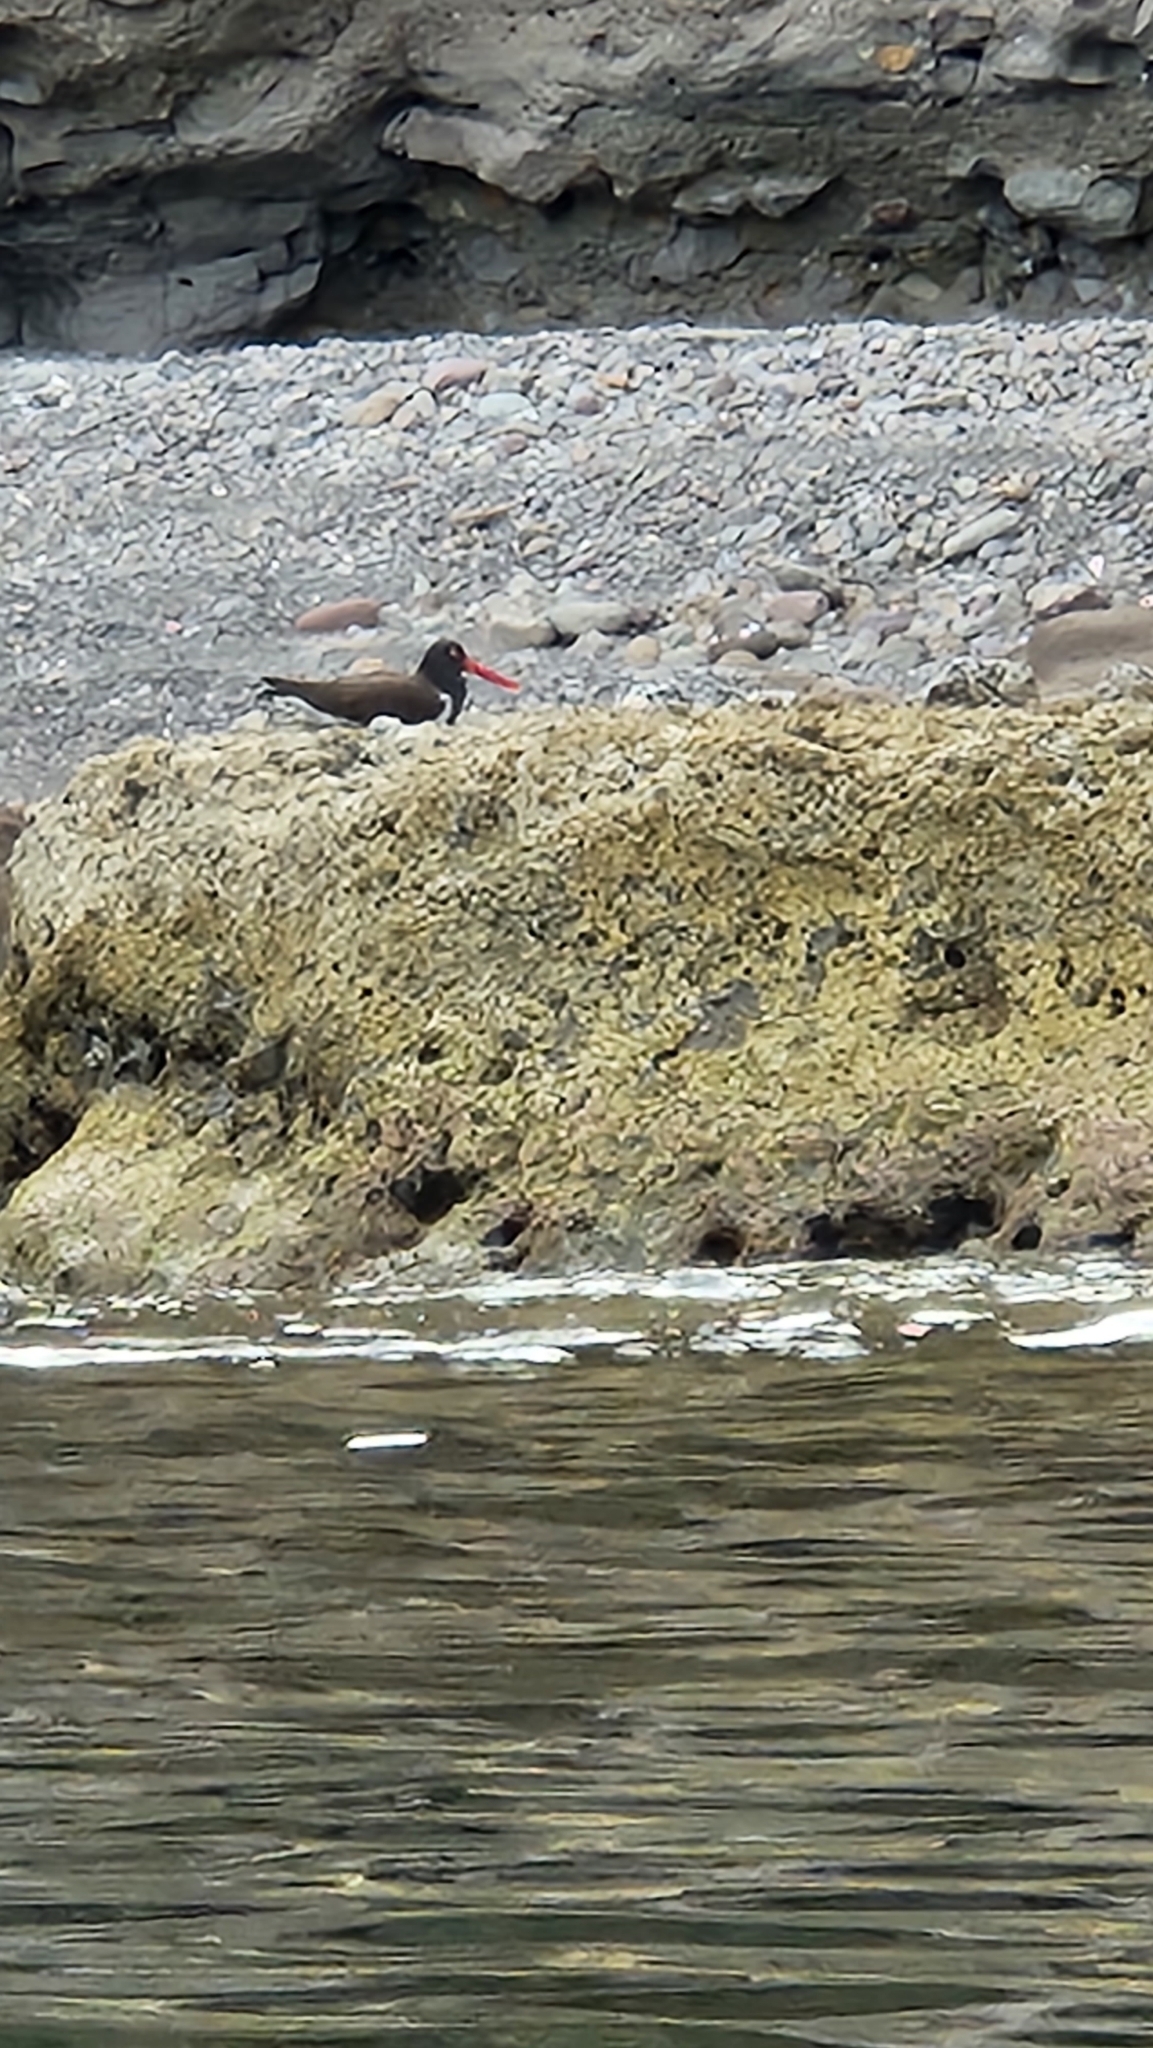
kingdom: Animalia
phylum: Chordata
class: Aves
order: Charadriiformes
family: Haematopodidae
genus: Haematopus
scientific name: Haematopus palliatus
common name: American oystercatcher
